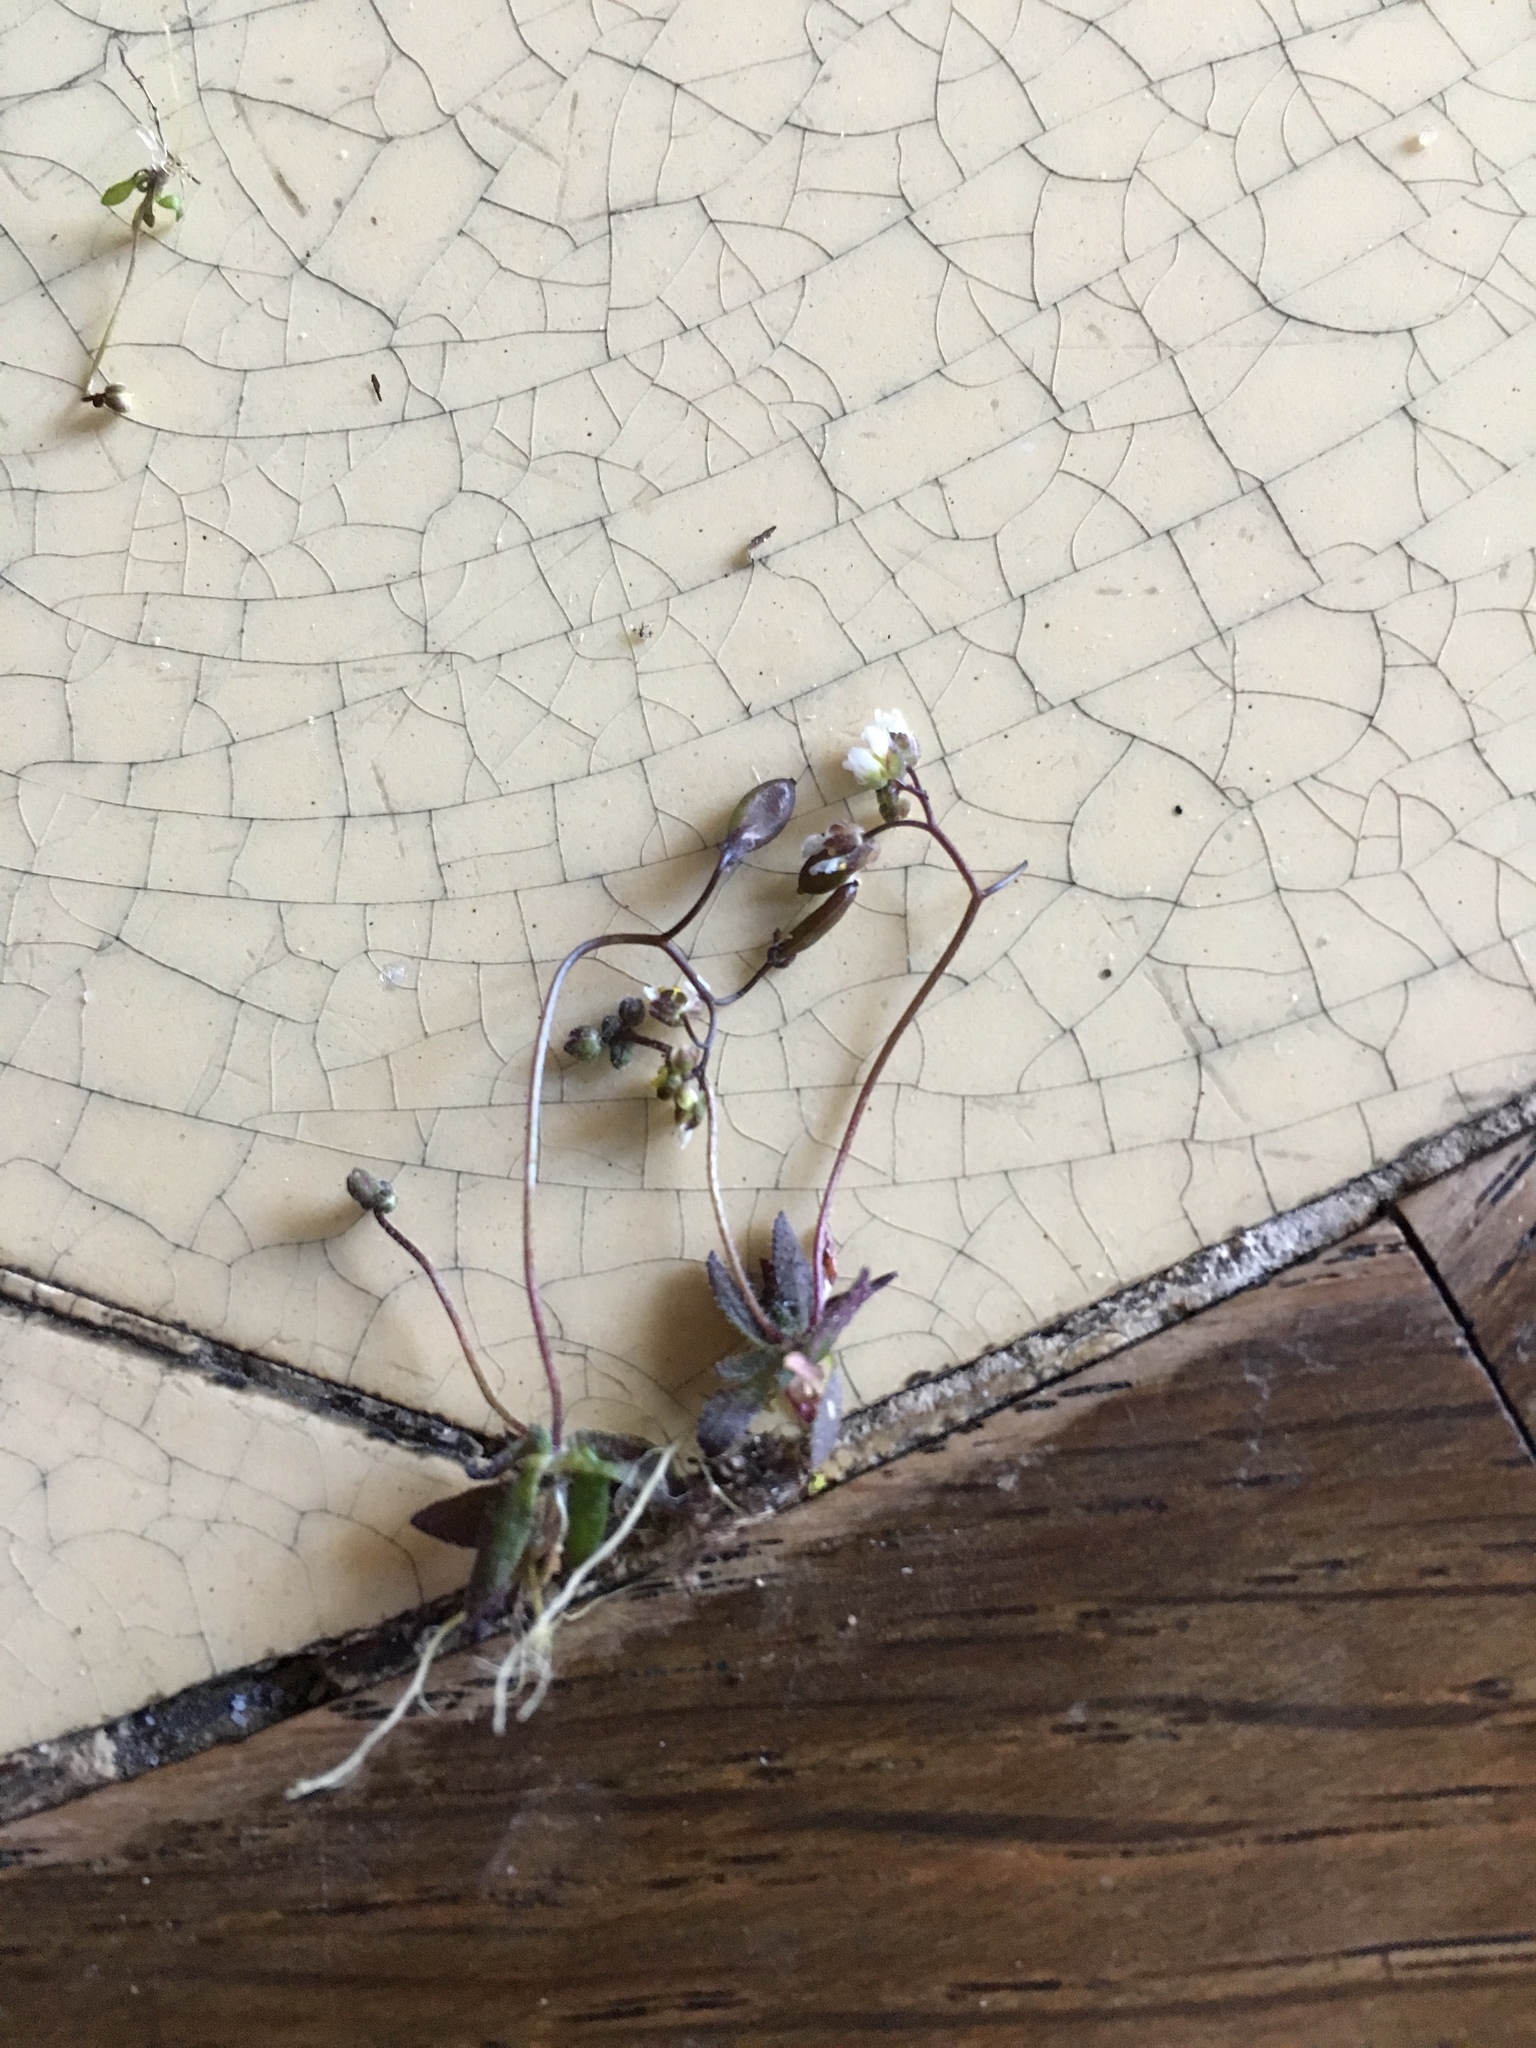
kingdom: Plantae
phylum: Tracheophyta
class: Magnoliopsida
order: Brassicales
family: Brassicaceae
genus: Draba
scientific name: Draba verna
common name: Spring draba
